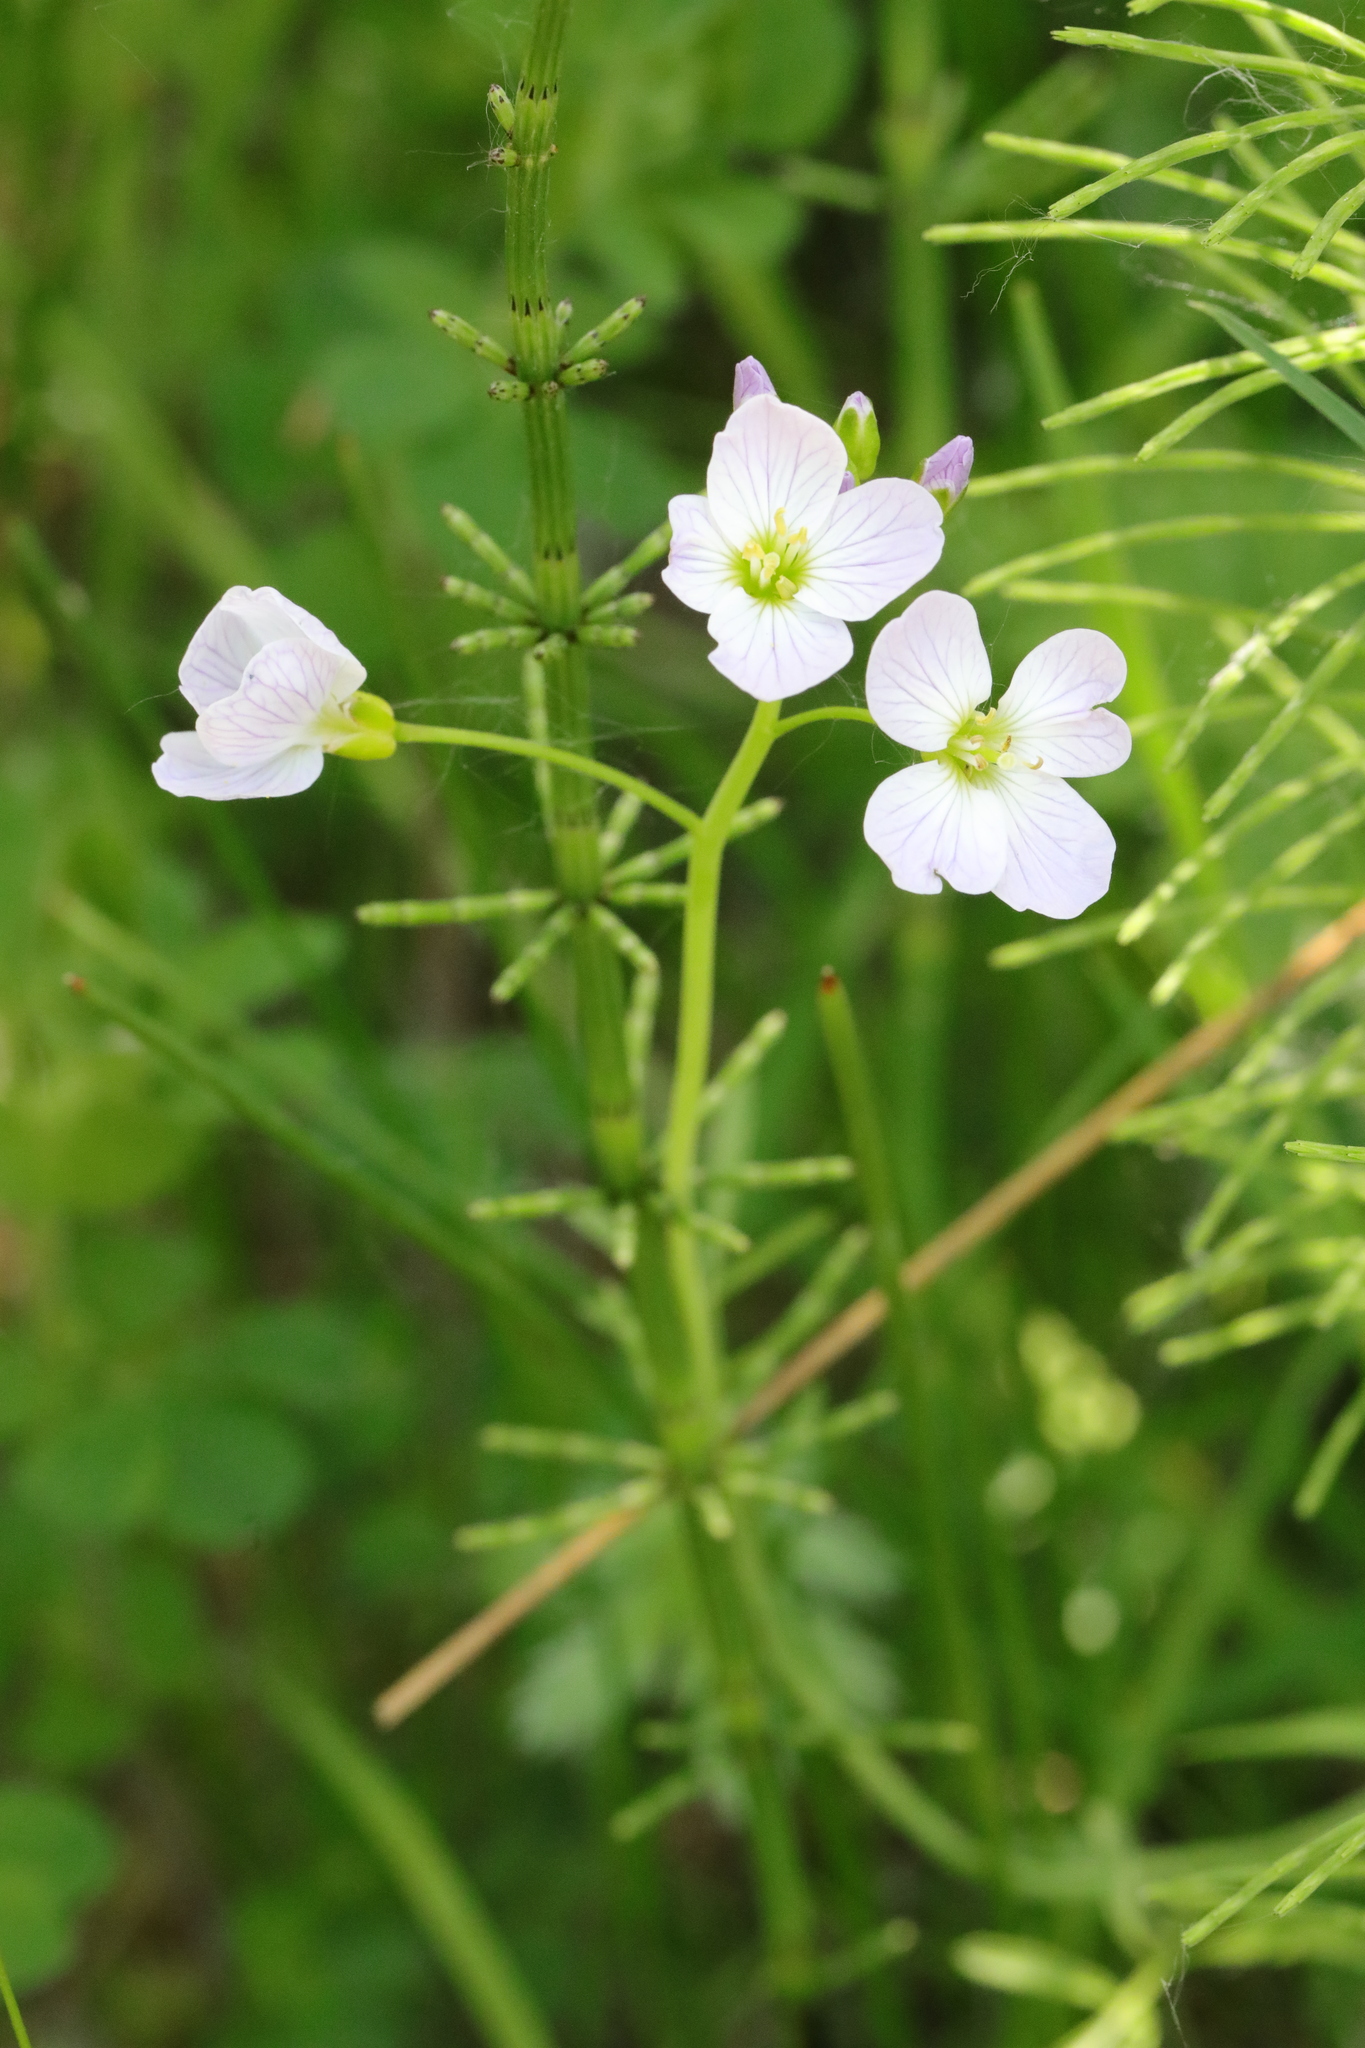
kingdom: Plantae
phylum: Tracheophyta
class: Magnoliopsida
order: Brassicales
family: Brassicaceae
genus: Cardamine
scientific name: Cardamine pratensis
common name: Cuckoo flower
